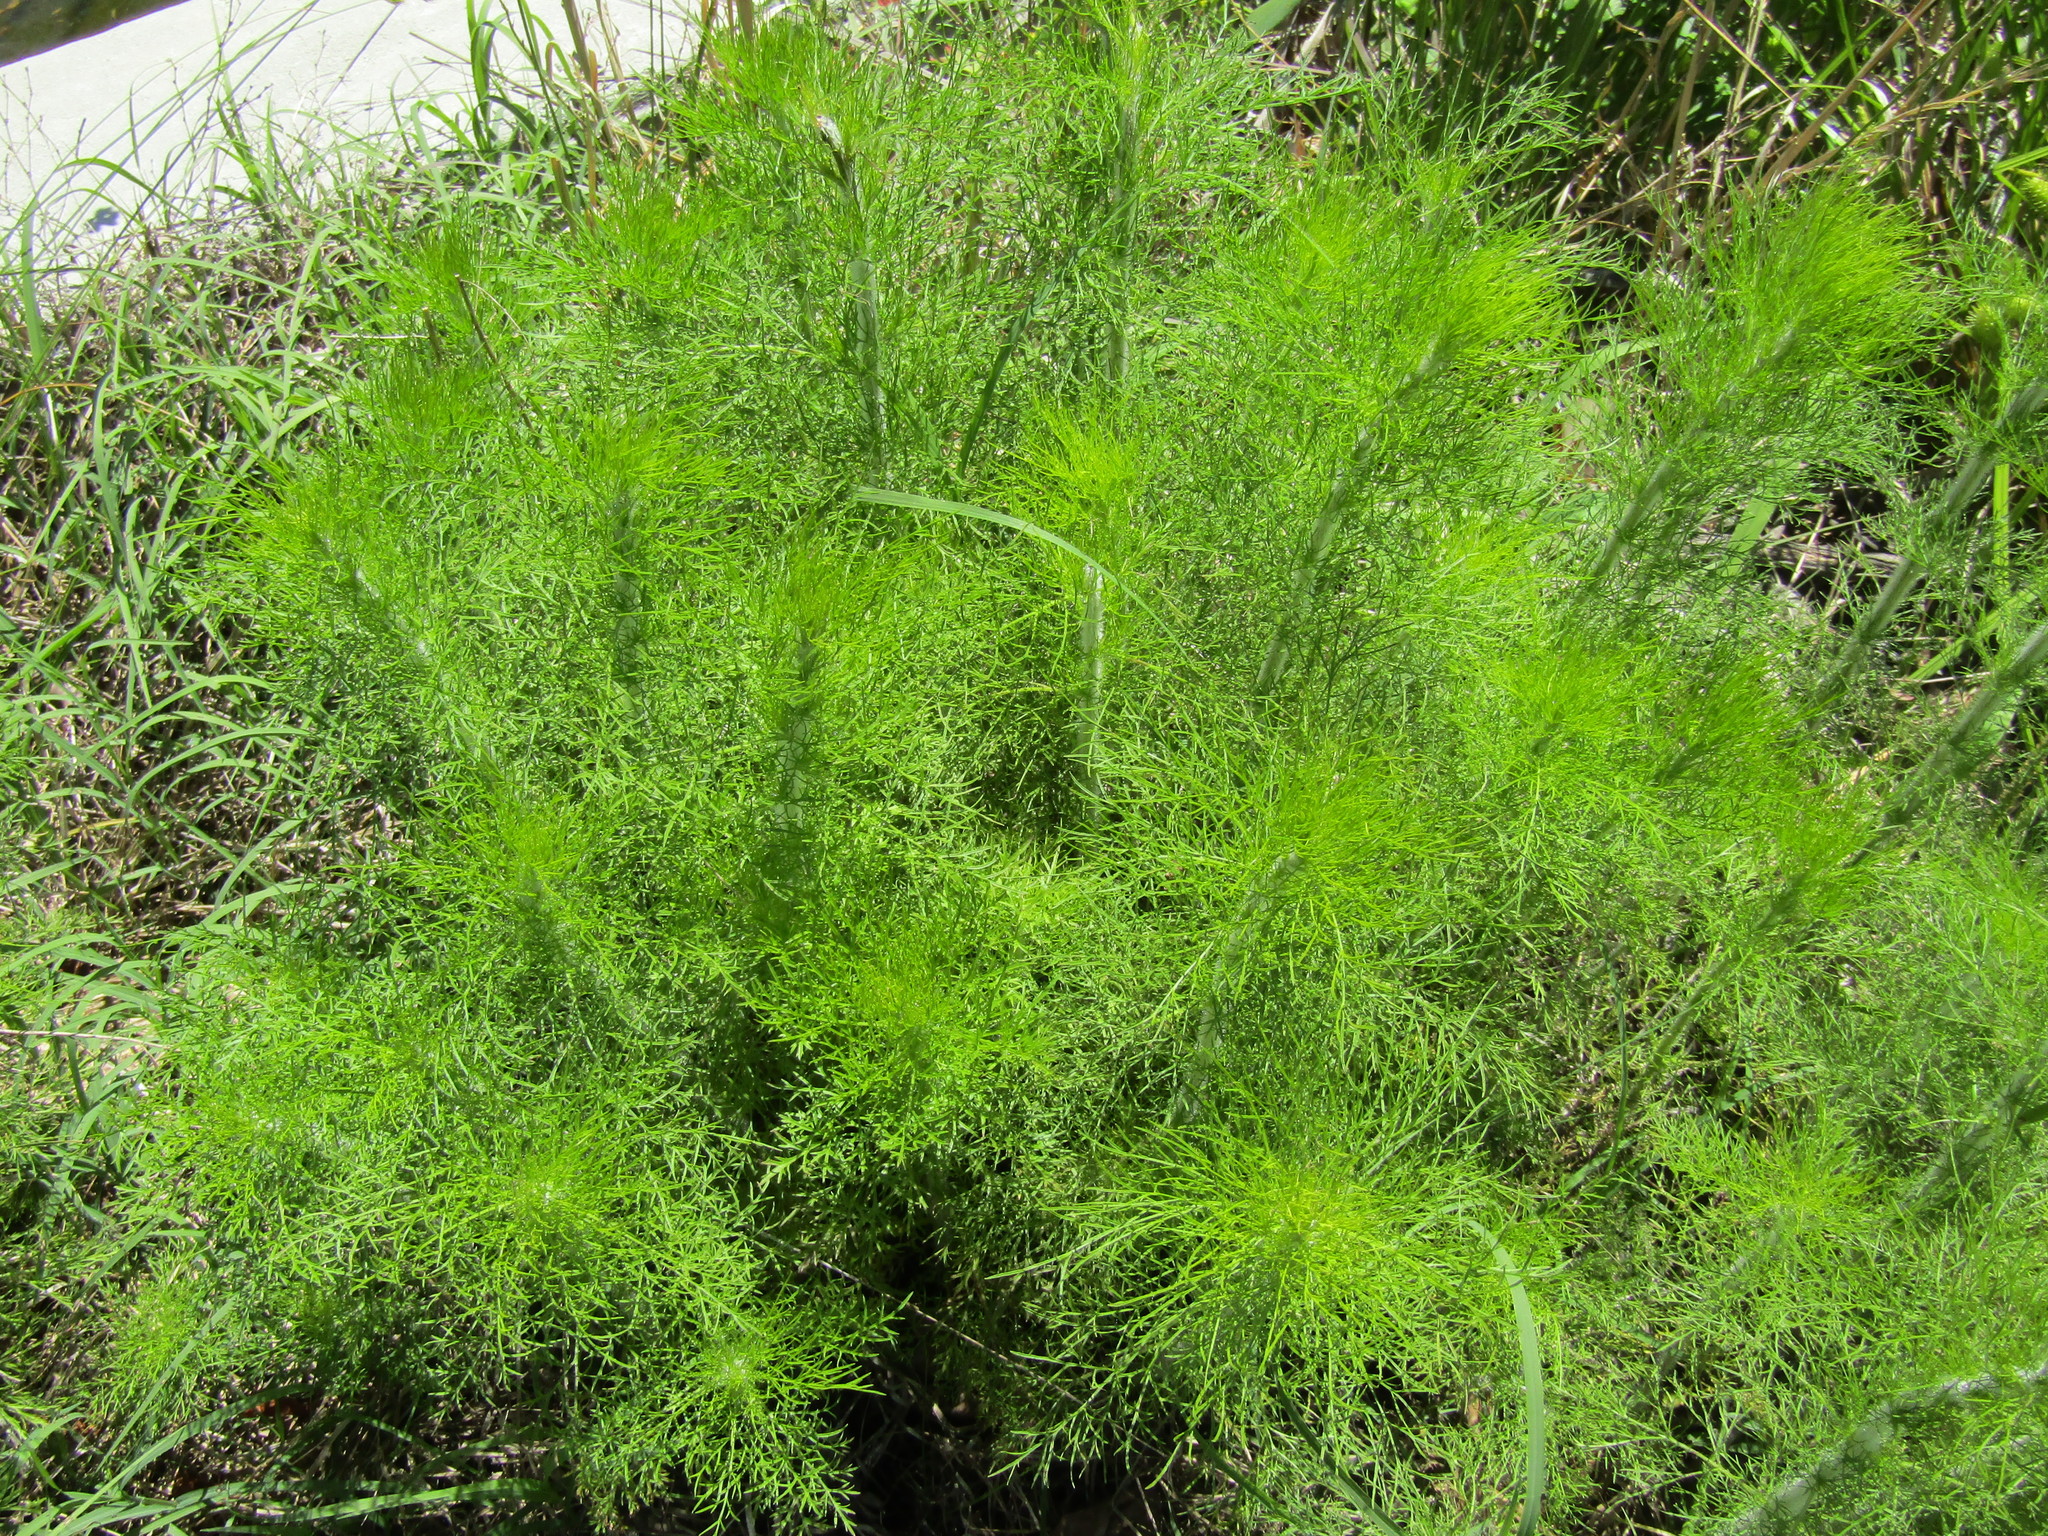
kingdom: Plantae
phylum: Tracheophyta
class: Magnoliopsida
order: Asterales
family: Asteraceae
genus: Eupatorium
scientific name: Eupatorium capillifolium
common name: Dog-fennel
